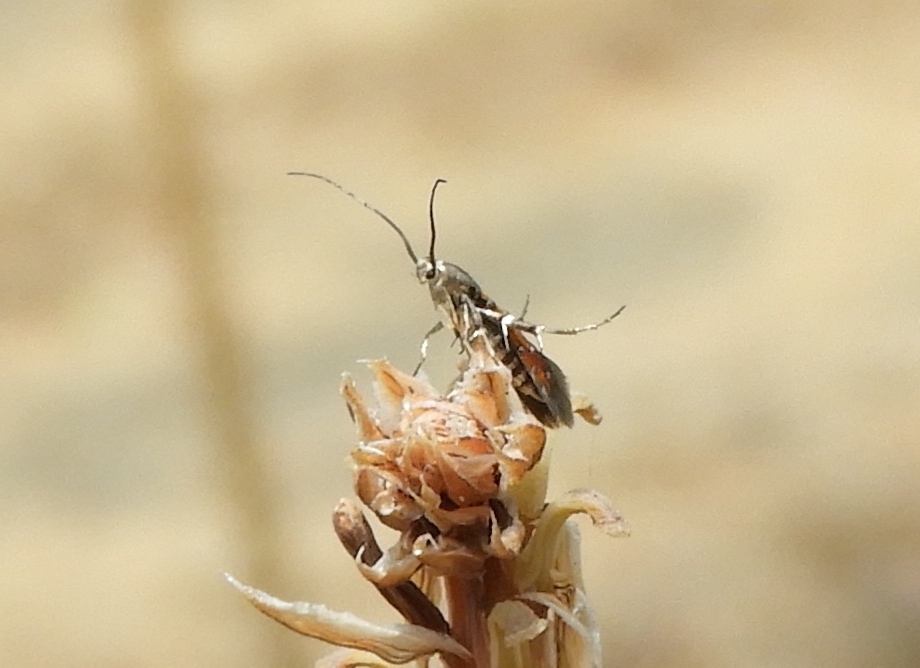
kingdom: Animalia
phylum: Arthropoda
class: Insecta
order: Lepidoptera
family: Heliodinidae
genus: Heliodines
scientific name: Heliodines
